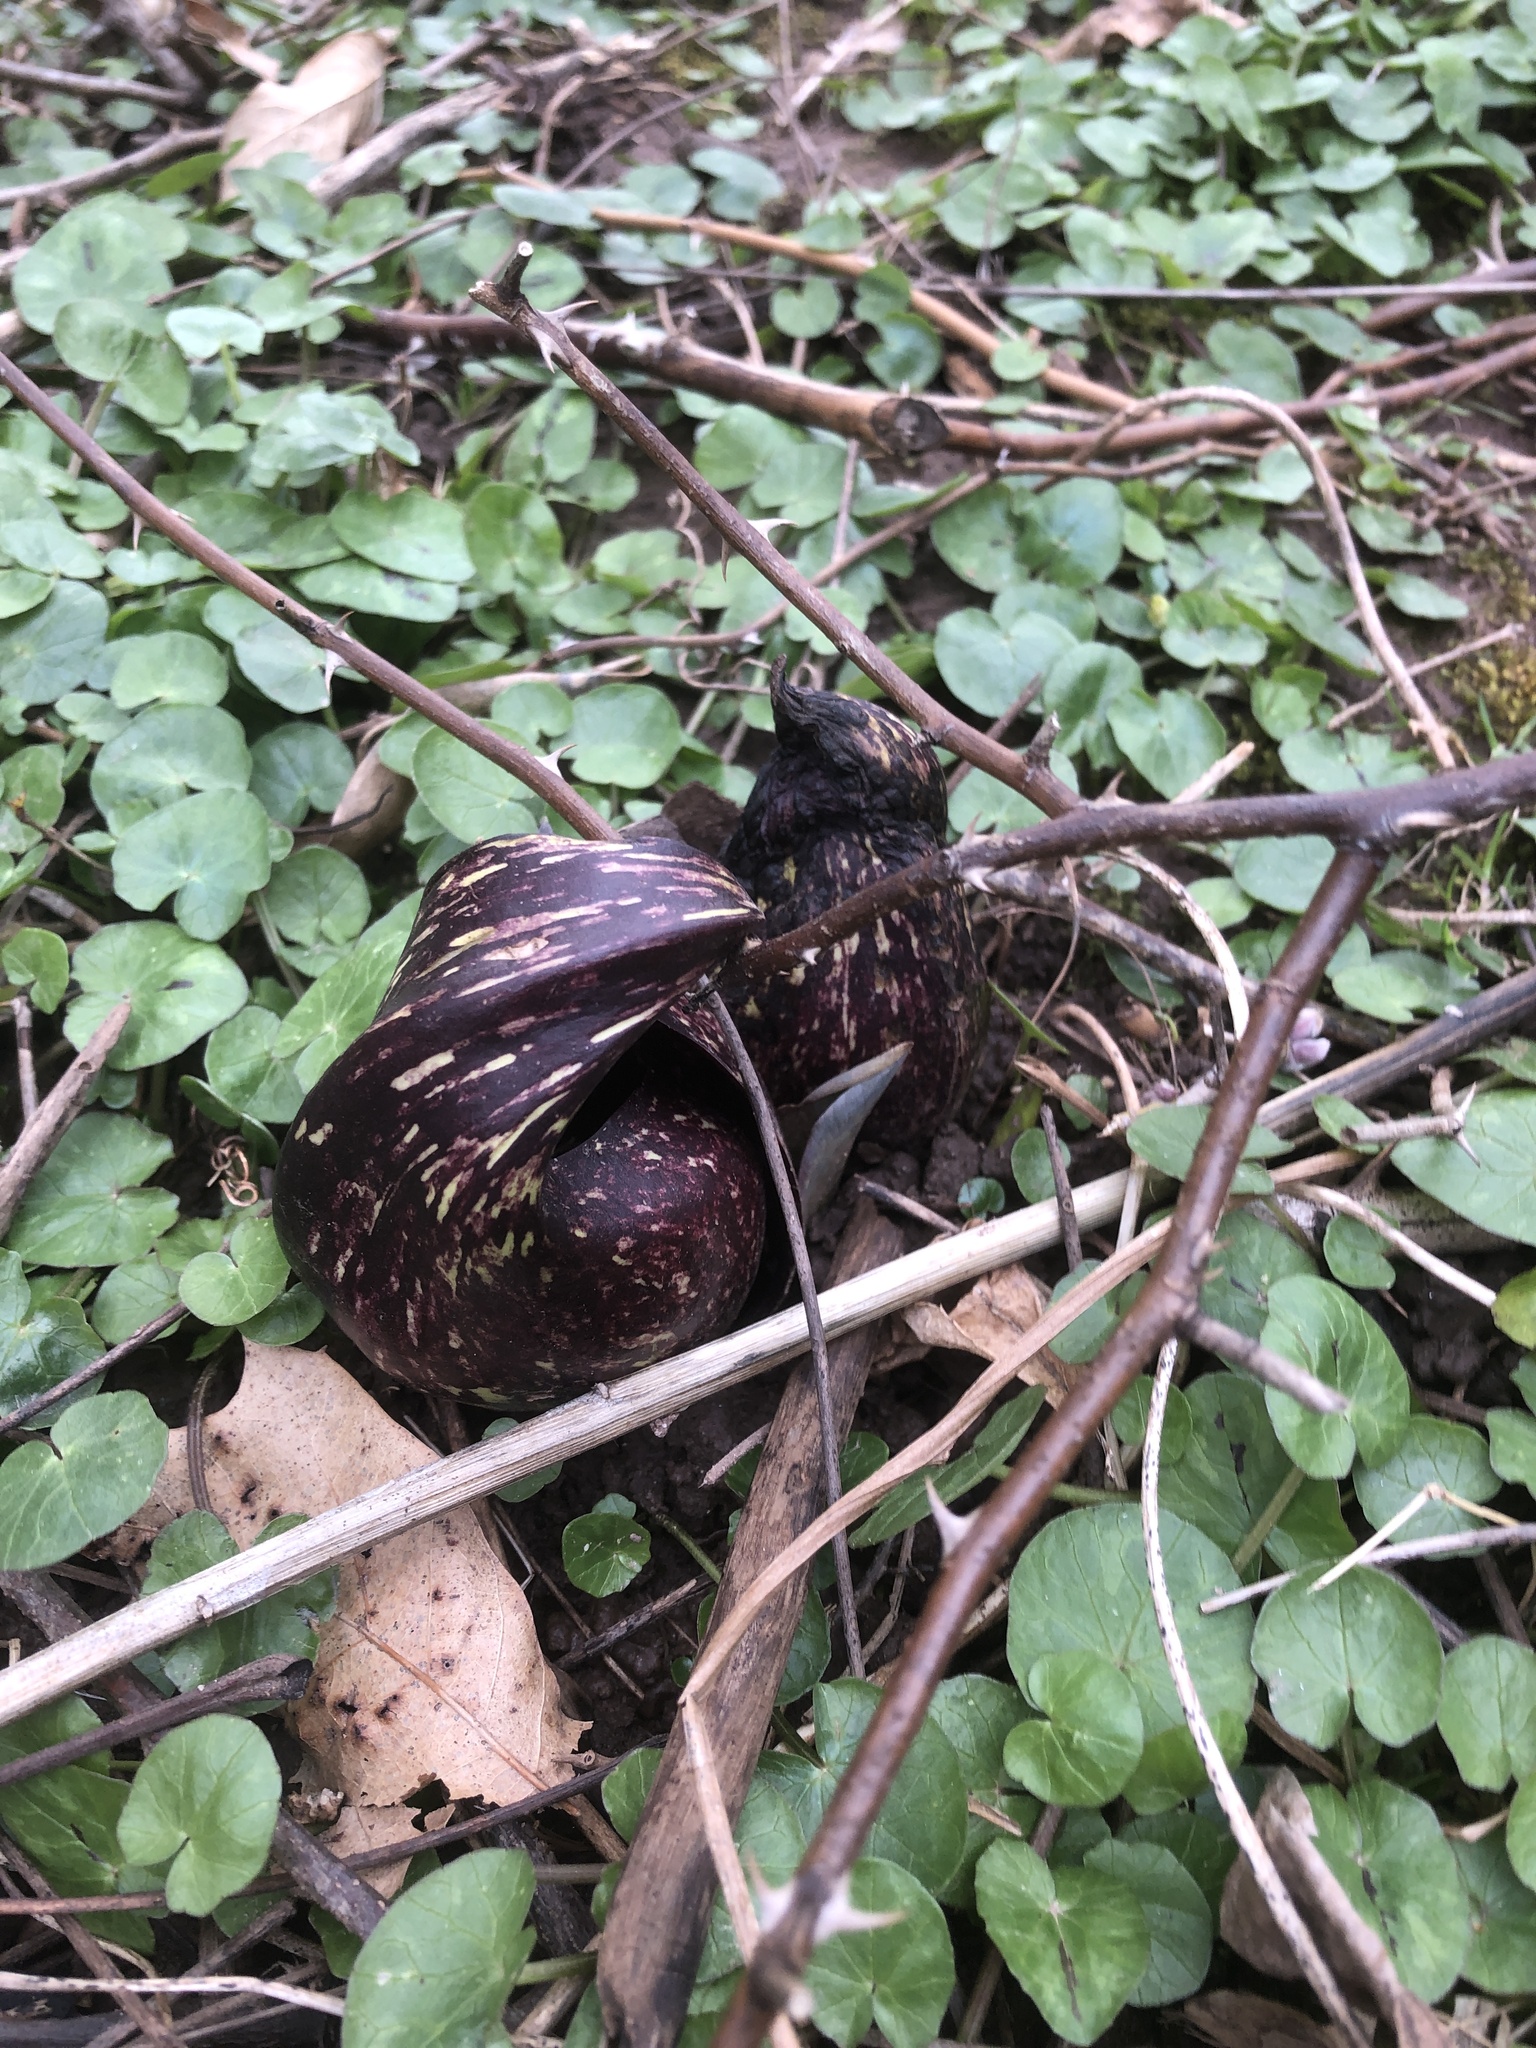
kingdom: Plantae
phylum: Tracheophyta
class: Liliopsida
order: Alismatales
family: Araceae
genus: Symplocarpus
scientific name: Symplocarpus foetidus
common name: Eastern skunk cabbage
